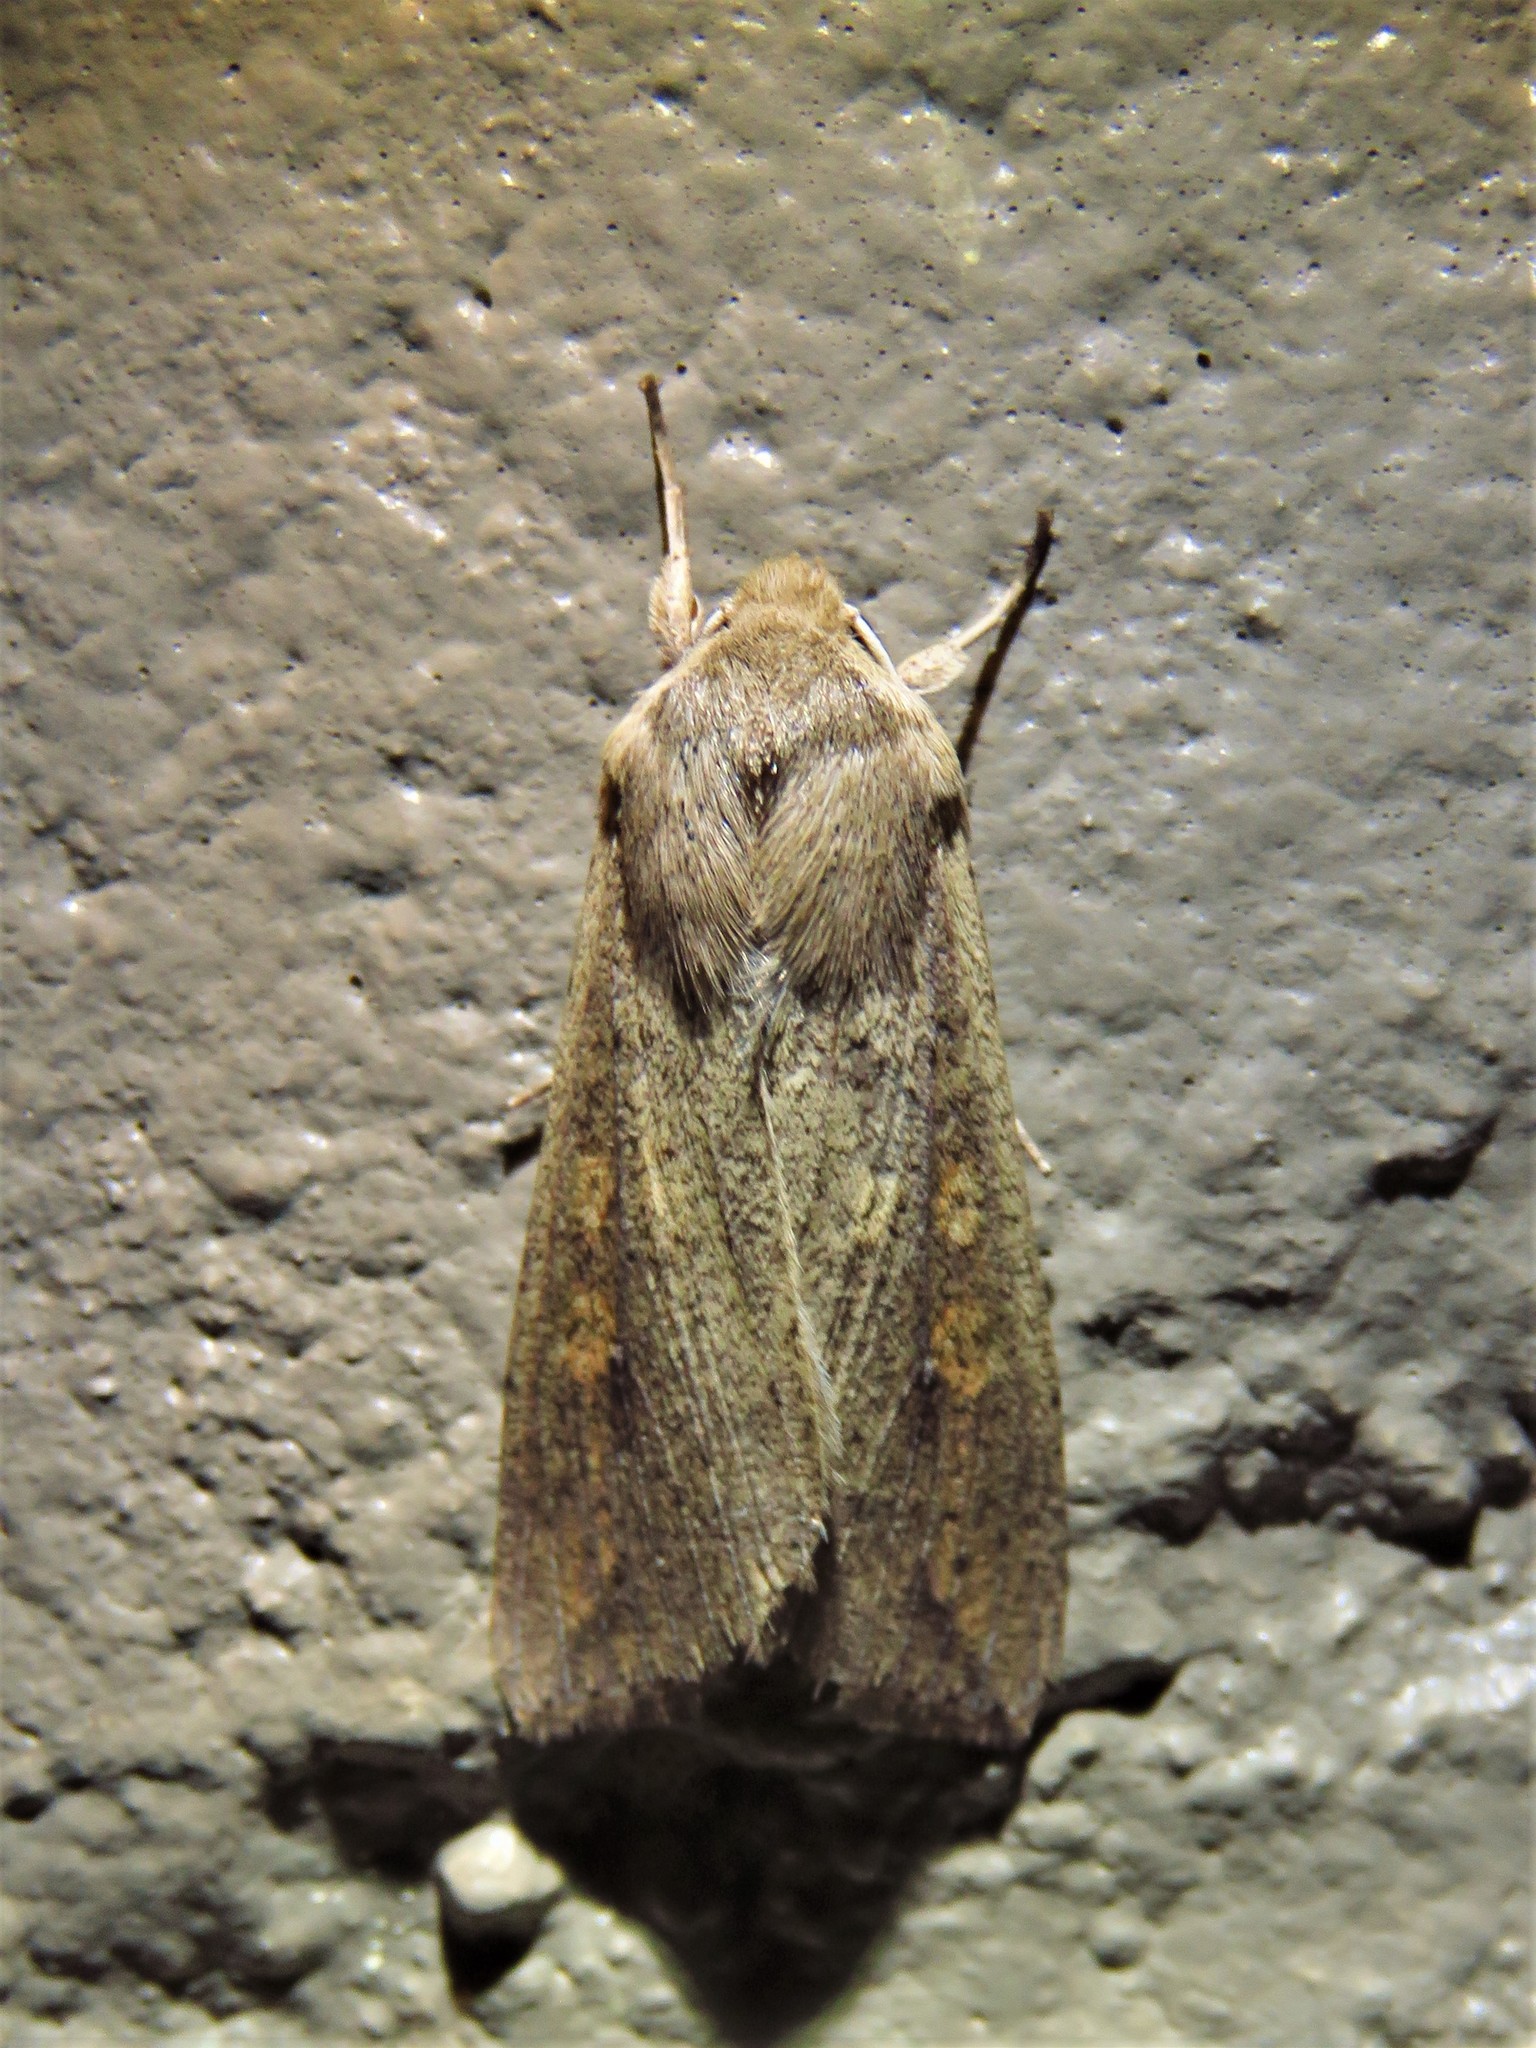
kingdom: Animalia
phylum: Arthropoda
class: Insecta
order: Lepidoptera
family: Noctuidae
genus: Mythimna
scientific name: Mythimna unipuncta
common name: White-speck
